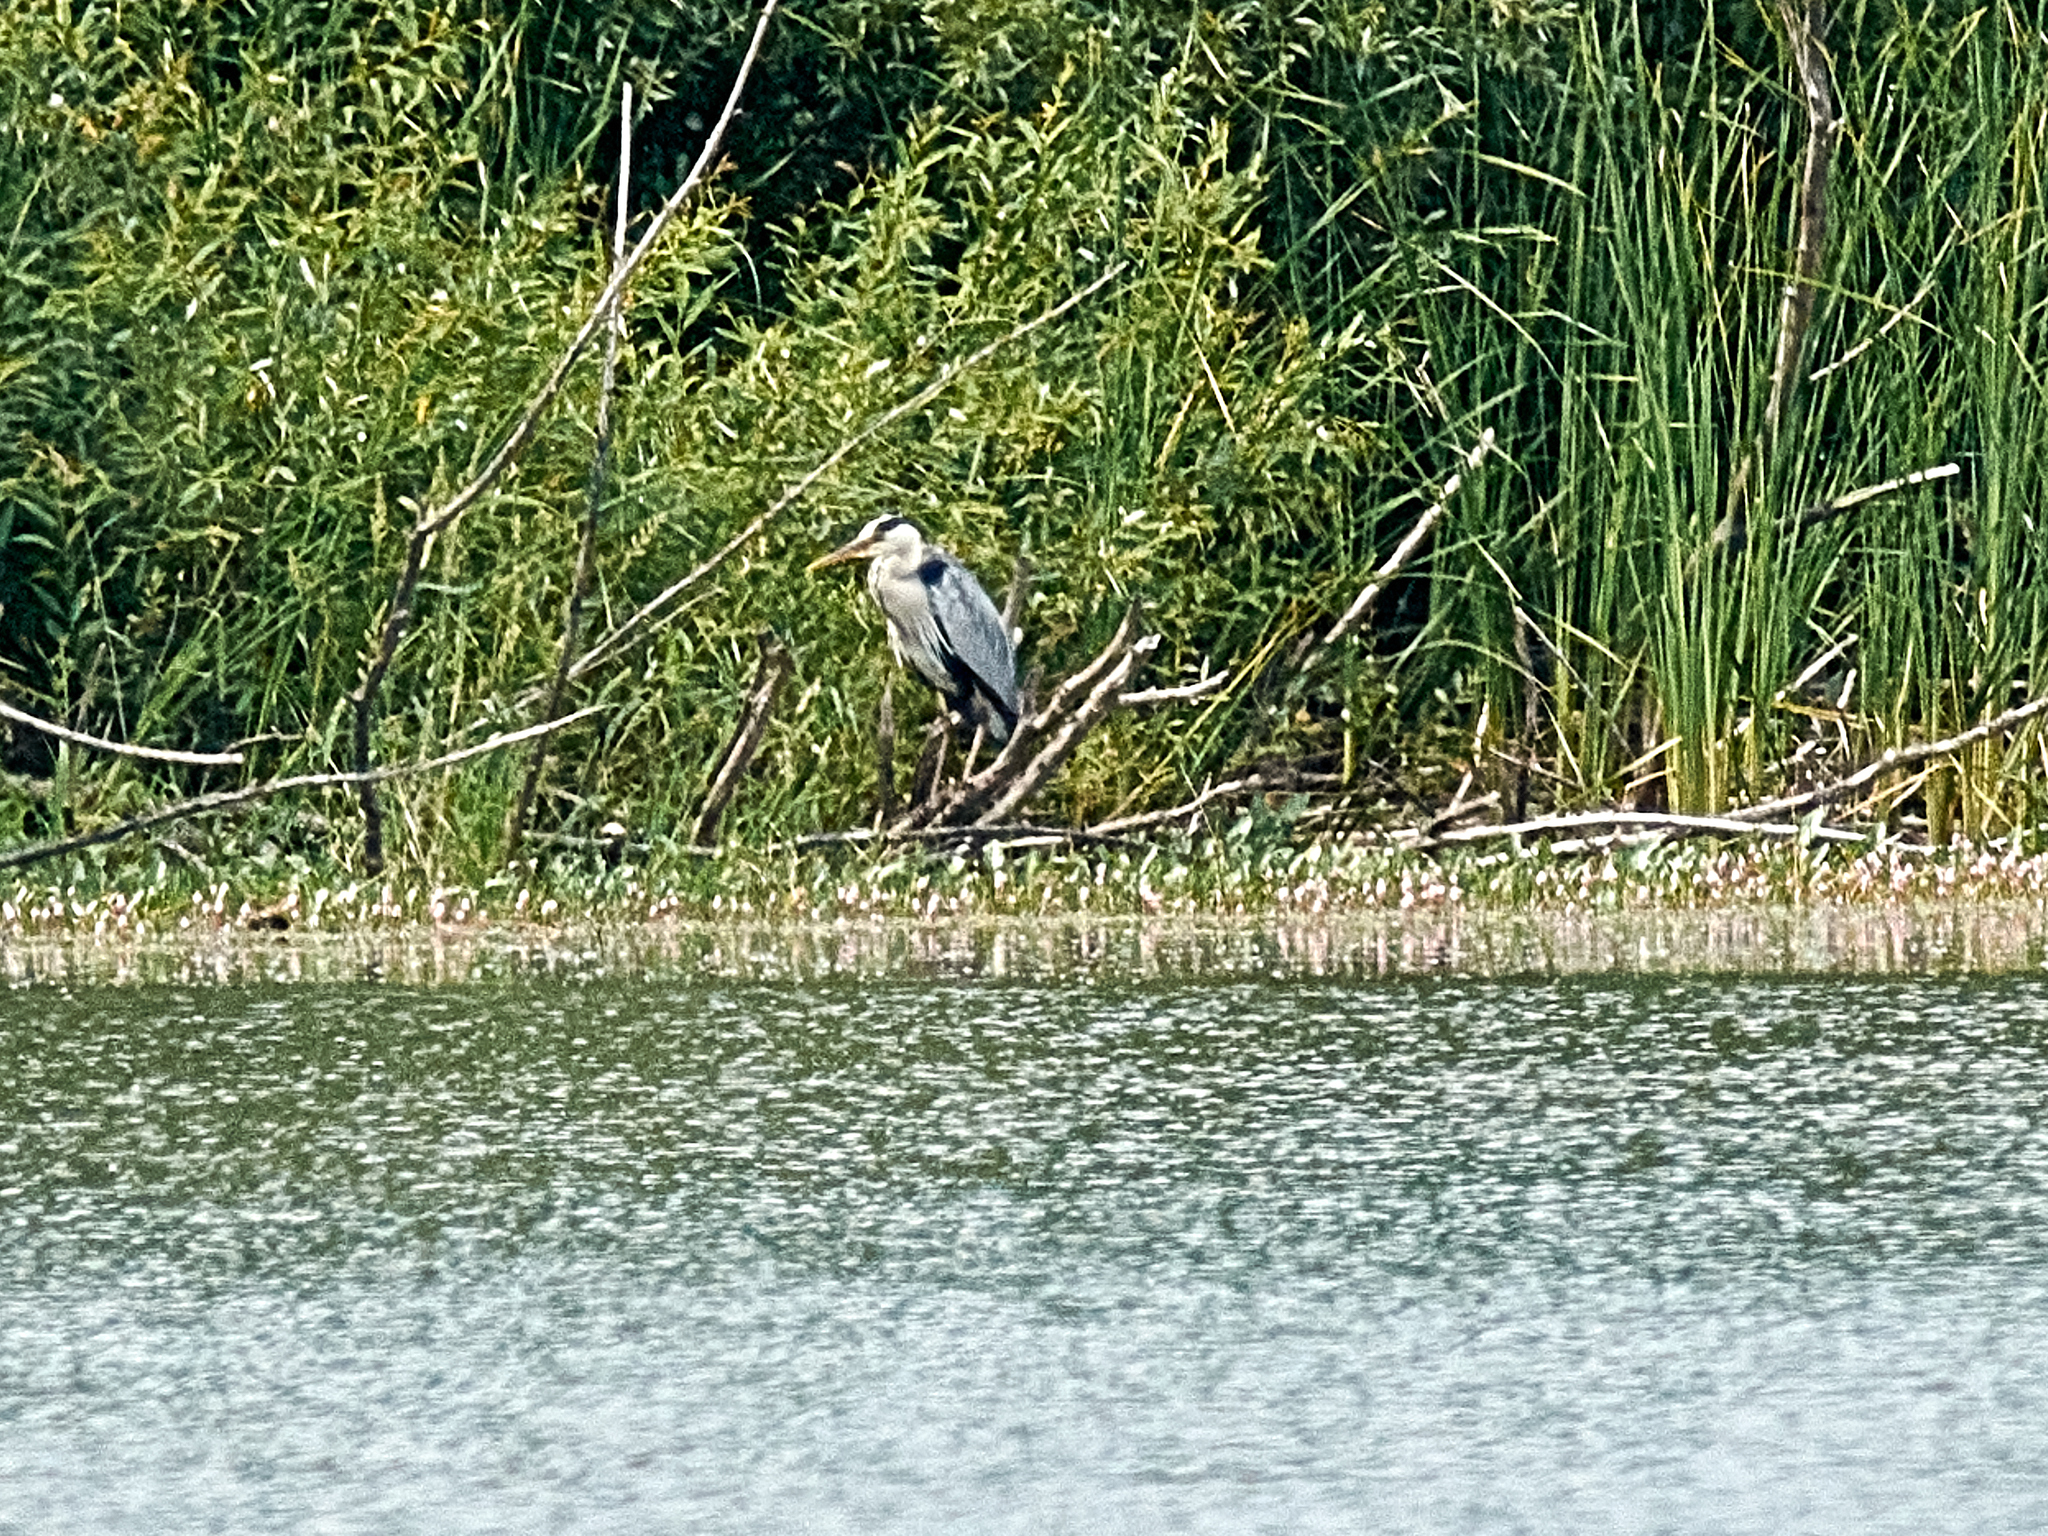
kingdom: Animalia
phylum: Chordata
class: Aves
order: Pelecaniformes
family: Ardeidae
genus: Ardea
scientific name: Ardea cinerea
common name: Grey heron
